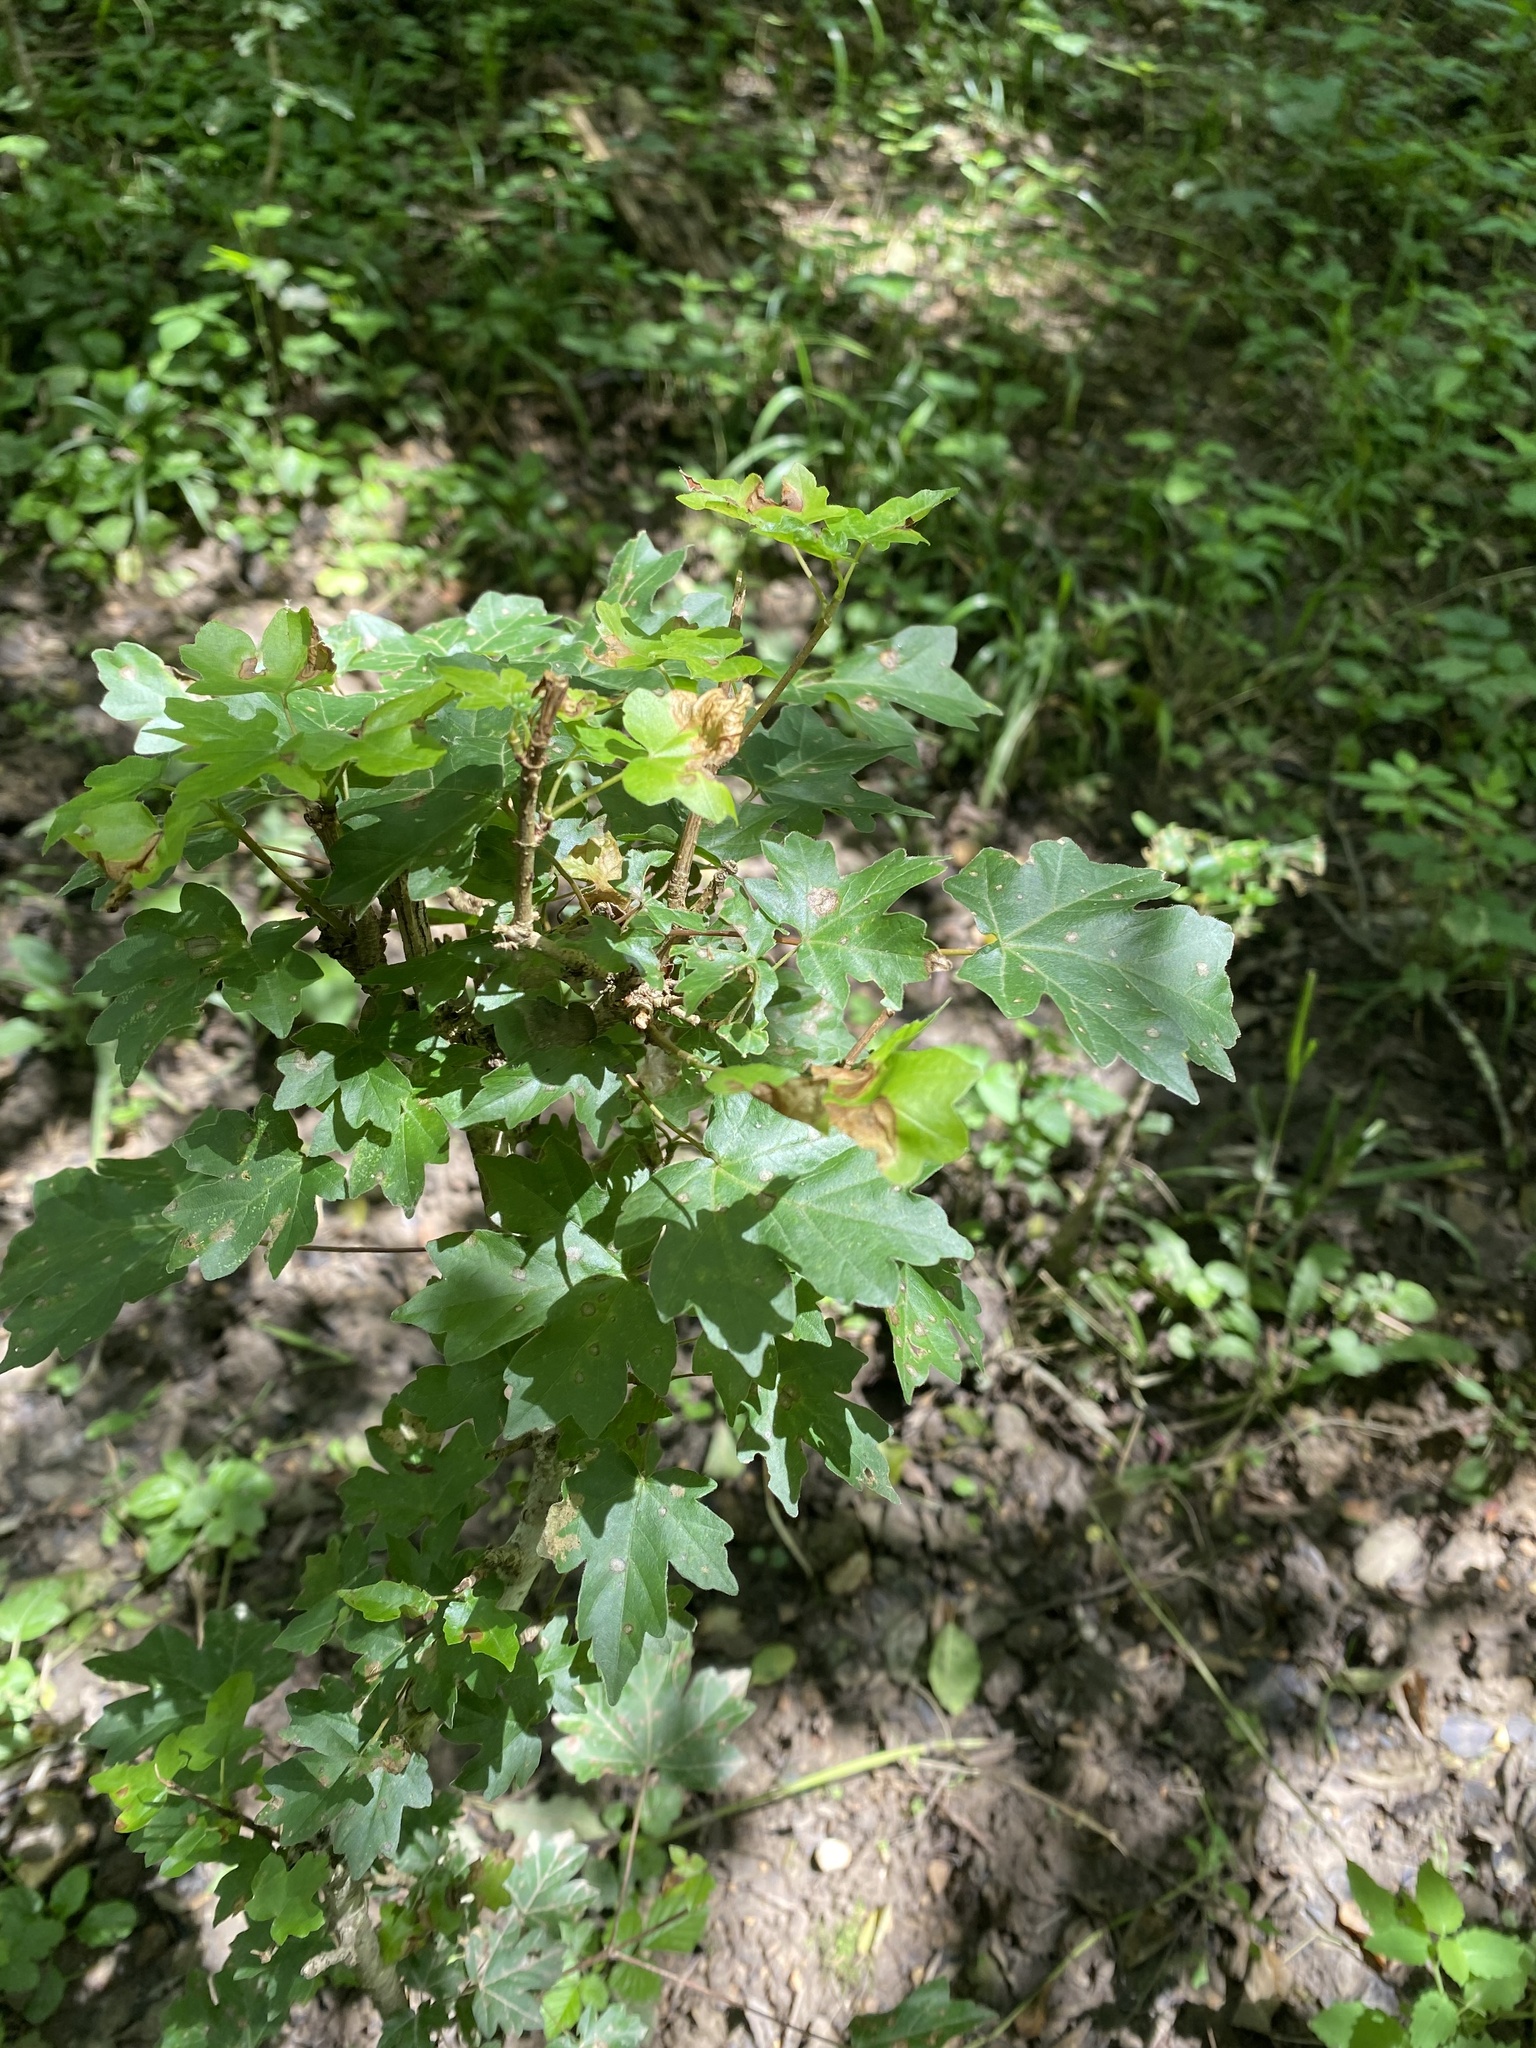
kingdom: Plantae
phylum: Tracheophyta
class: Magnoliopsida
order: Sapindales
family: Sapindaceae
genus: Acer
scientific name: Acer campestre
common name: Field maple
